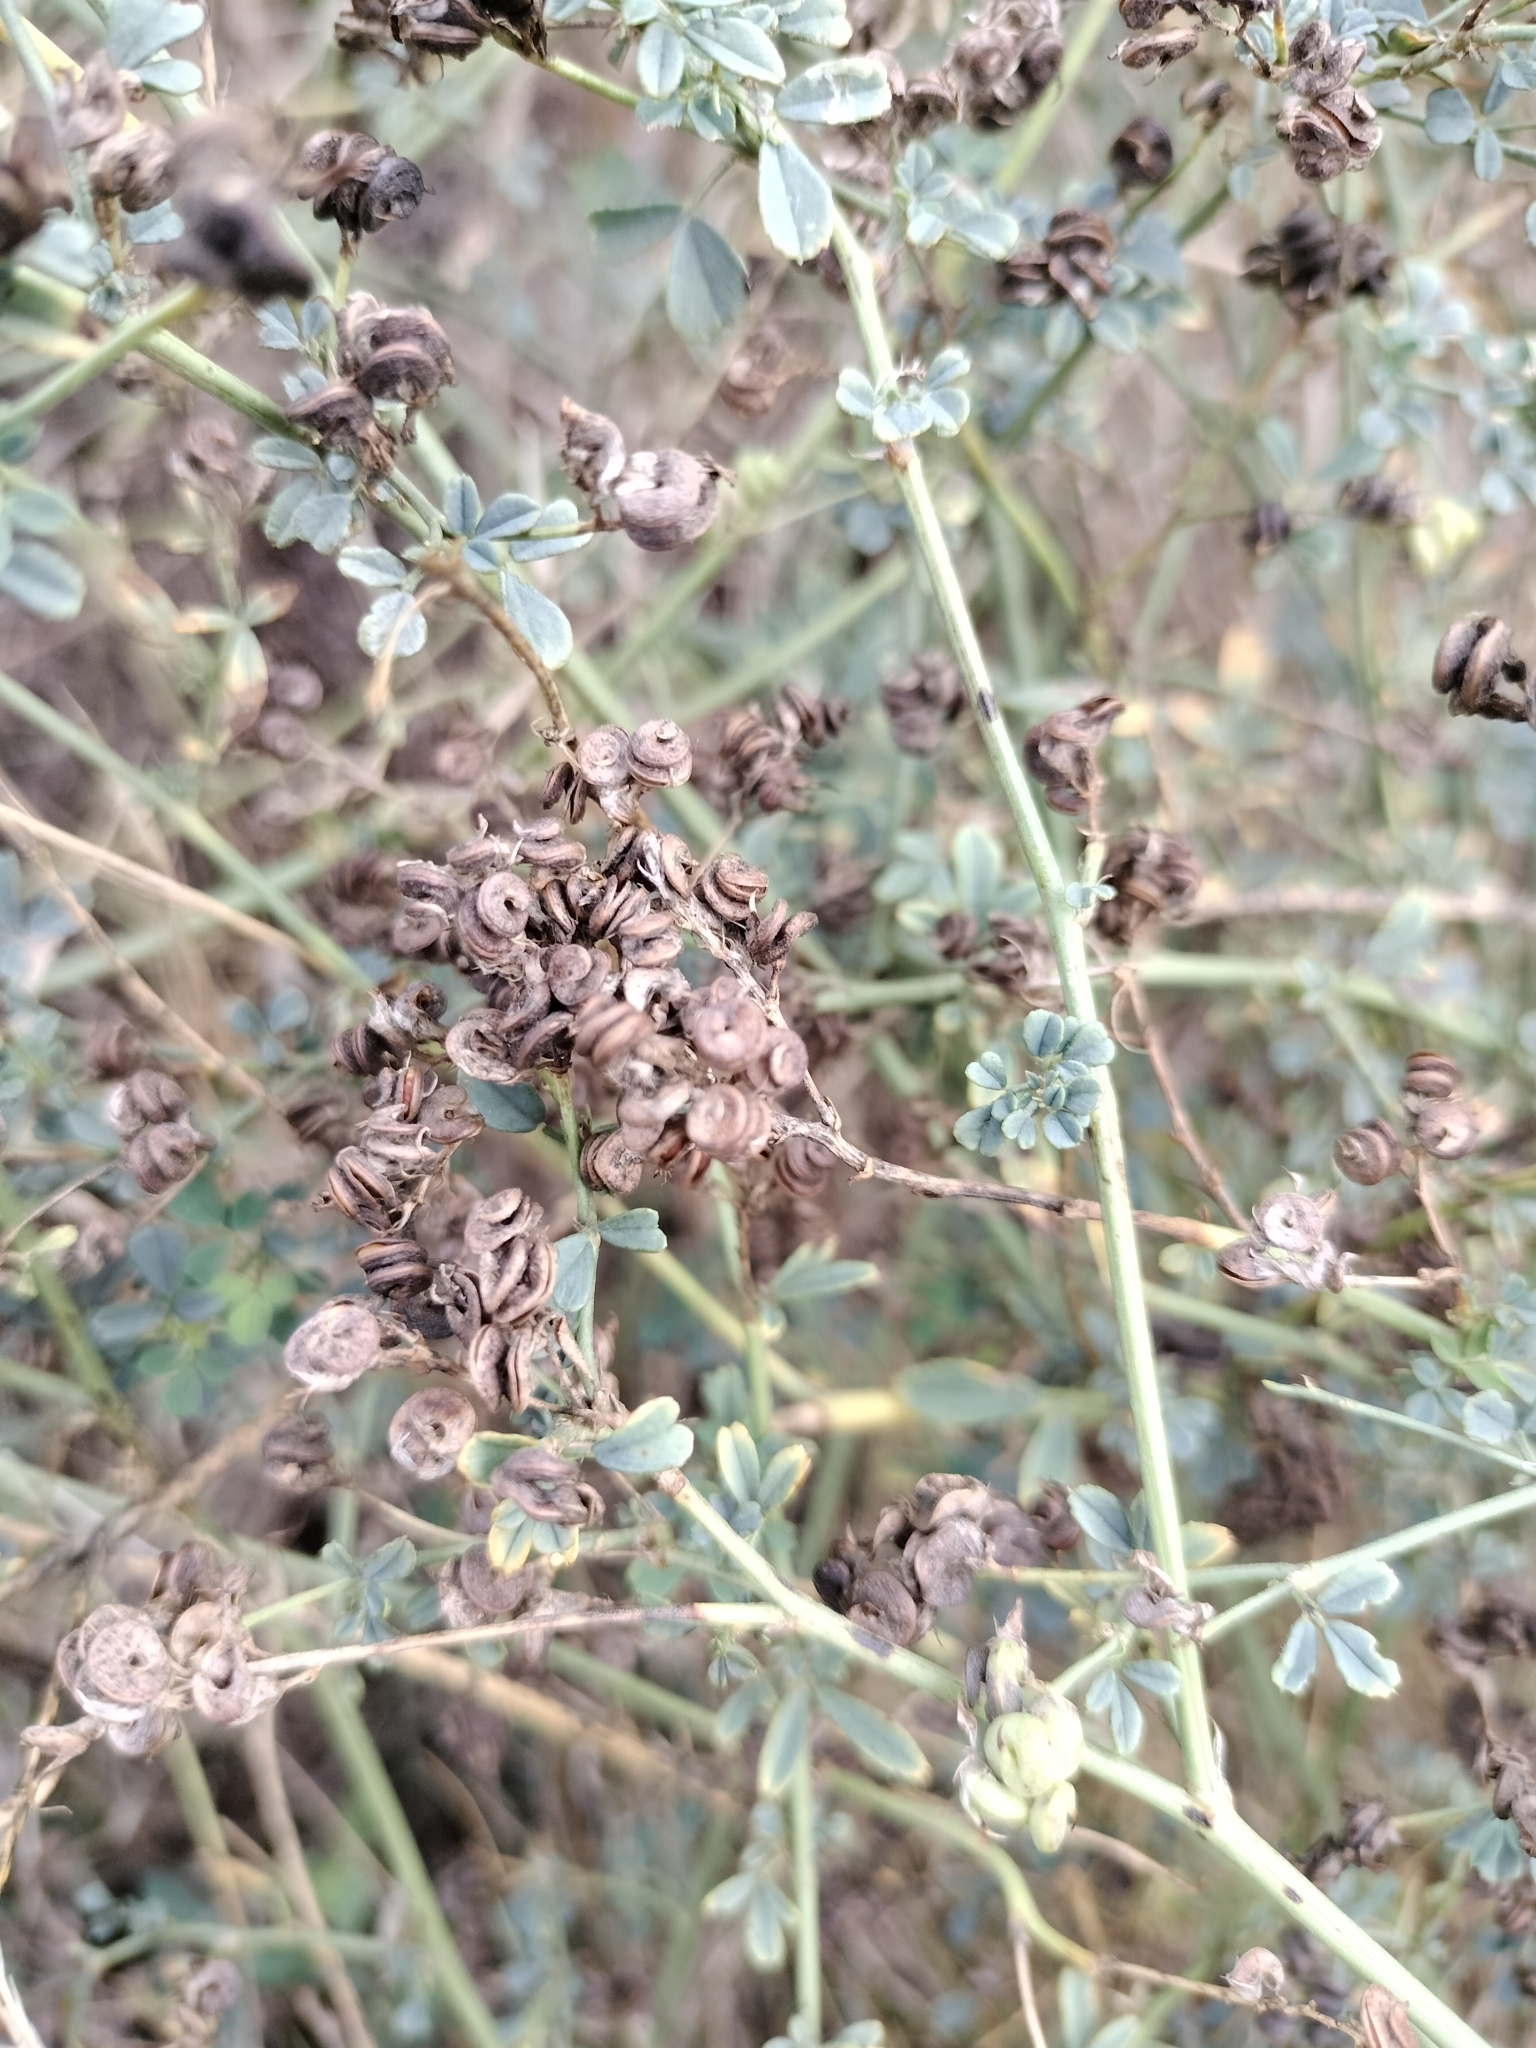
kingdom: Plantae
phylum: Tracheophyta
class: Magnoliopsida
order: Fabales
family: Fabaceae
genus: Medicago
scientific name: Medicago sativa
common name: Alfalfa
